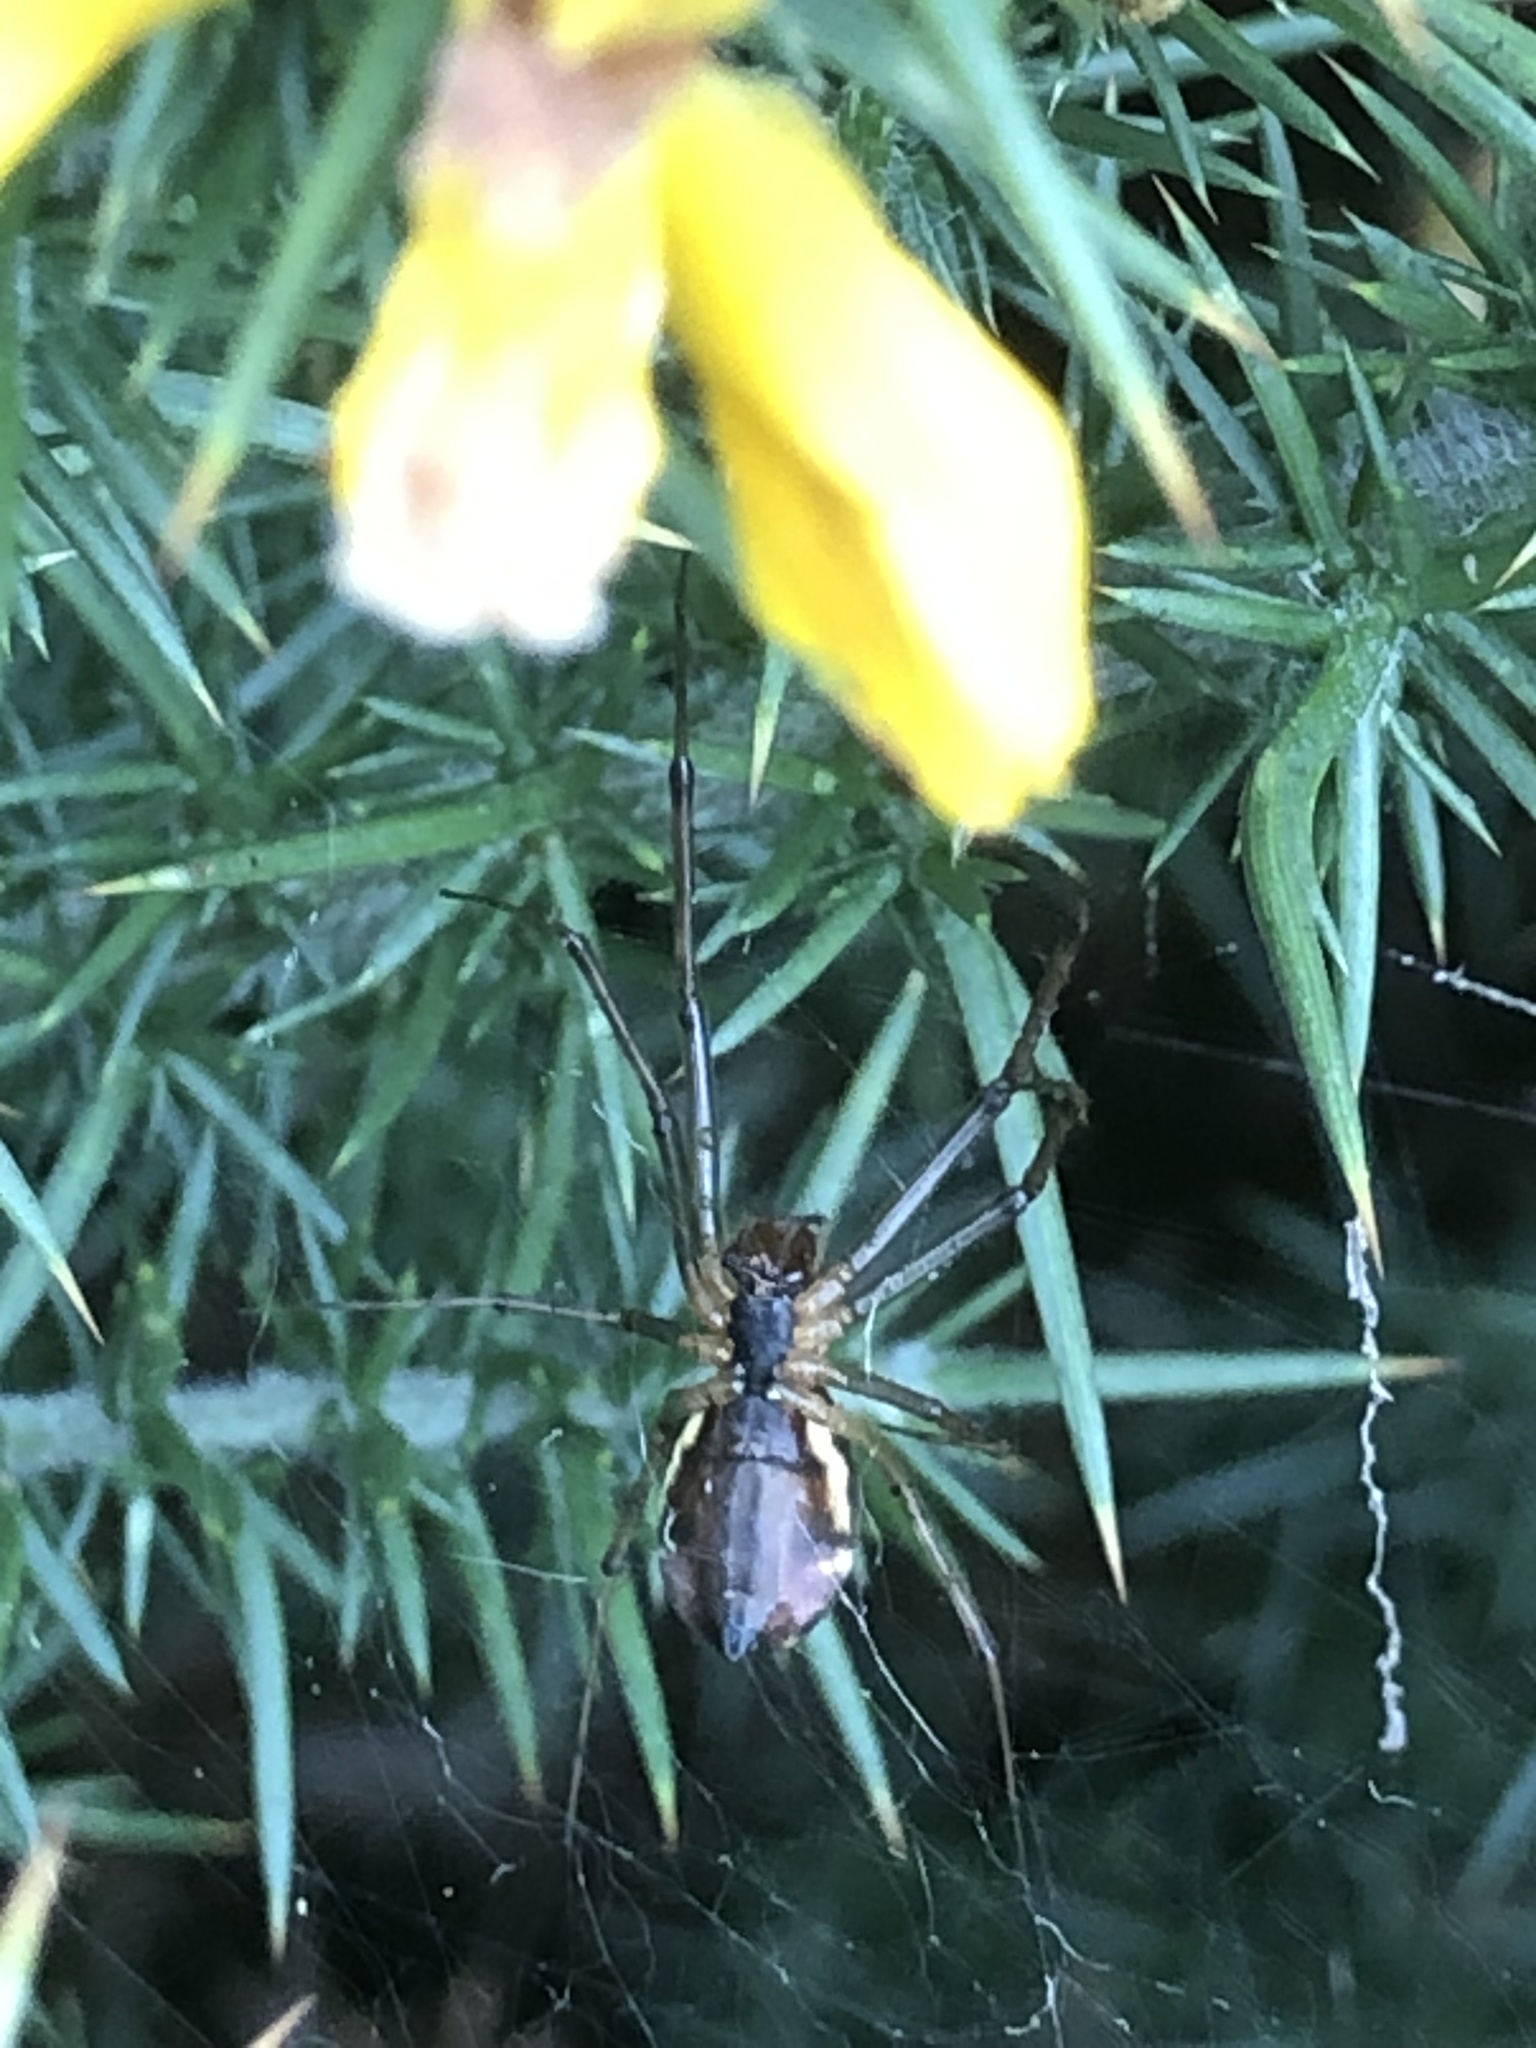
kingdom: Animalia
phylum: Arthropoda
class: Arachnida
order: Araneae
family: Linyphiidae
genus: Linyphia
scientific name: Linyphia triangularis
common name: Money spider
